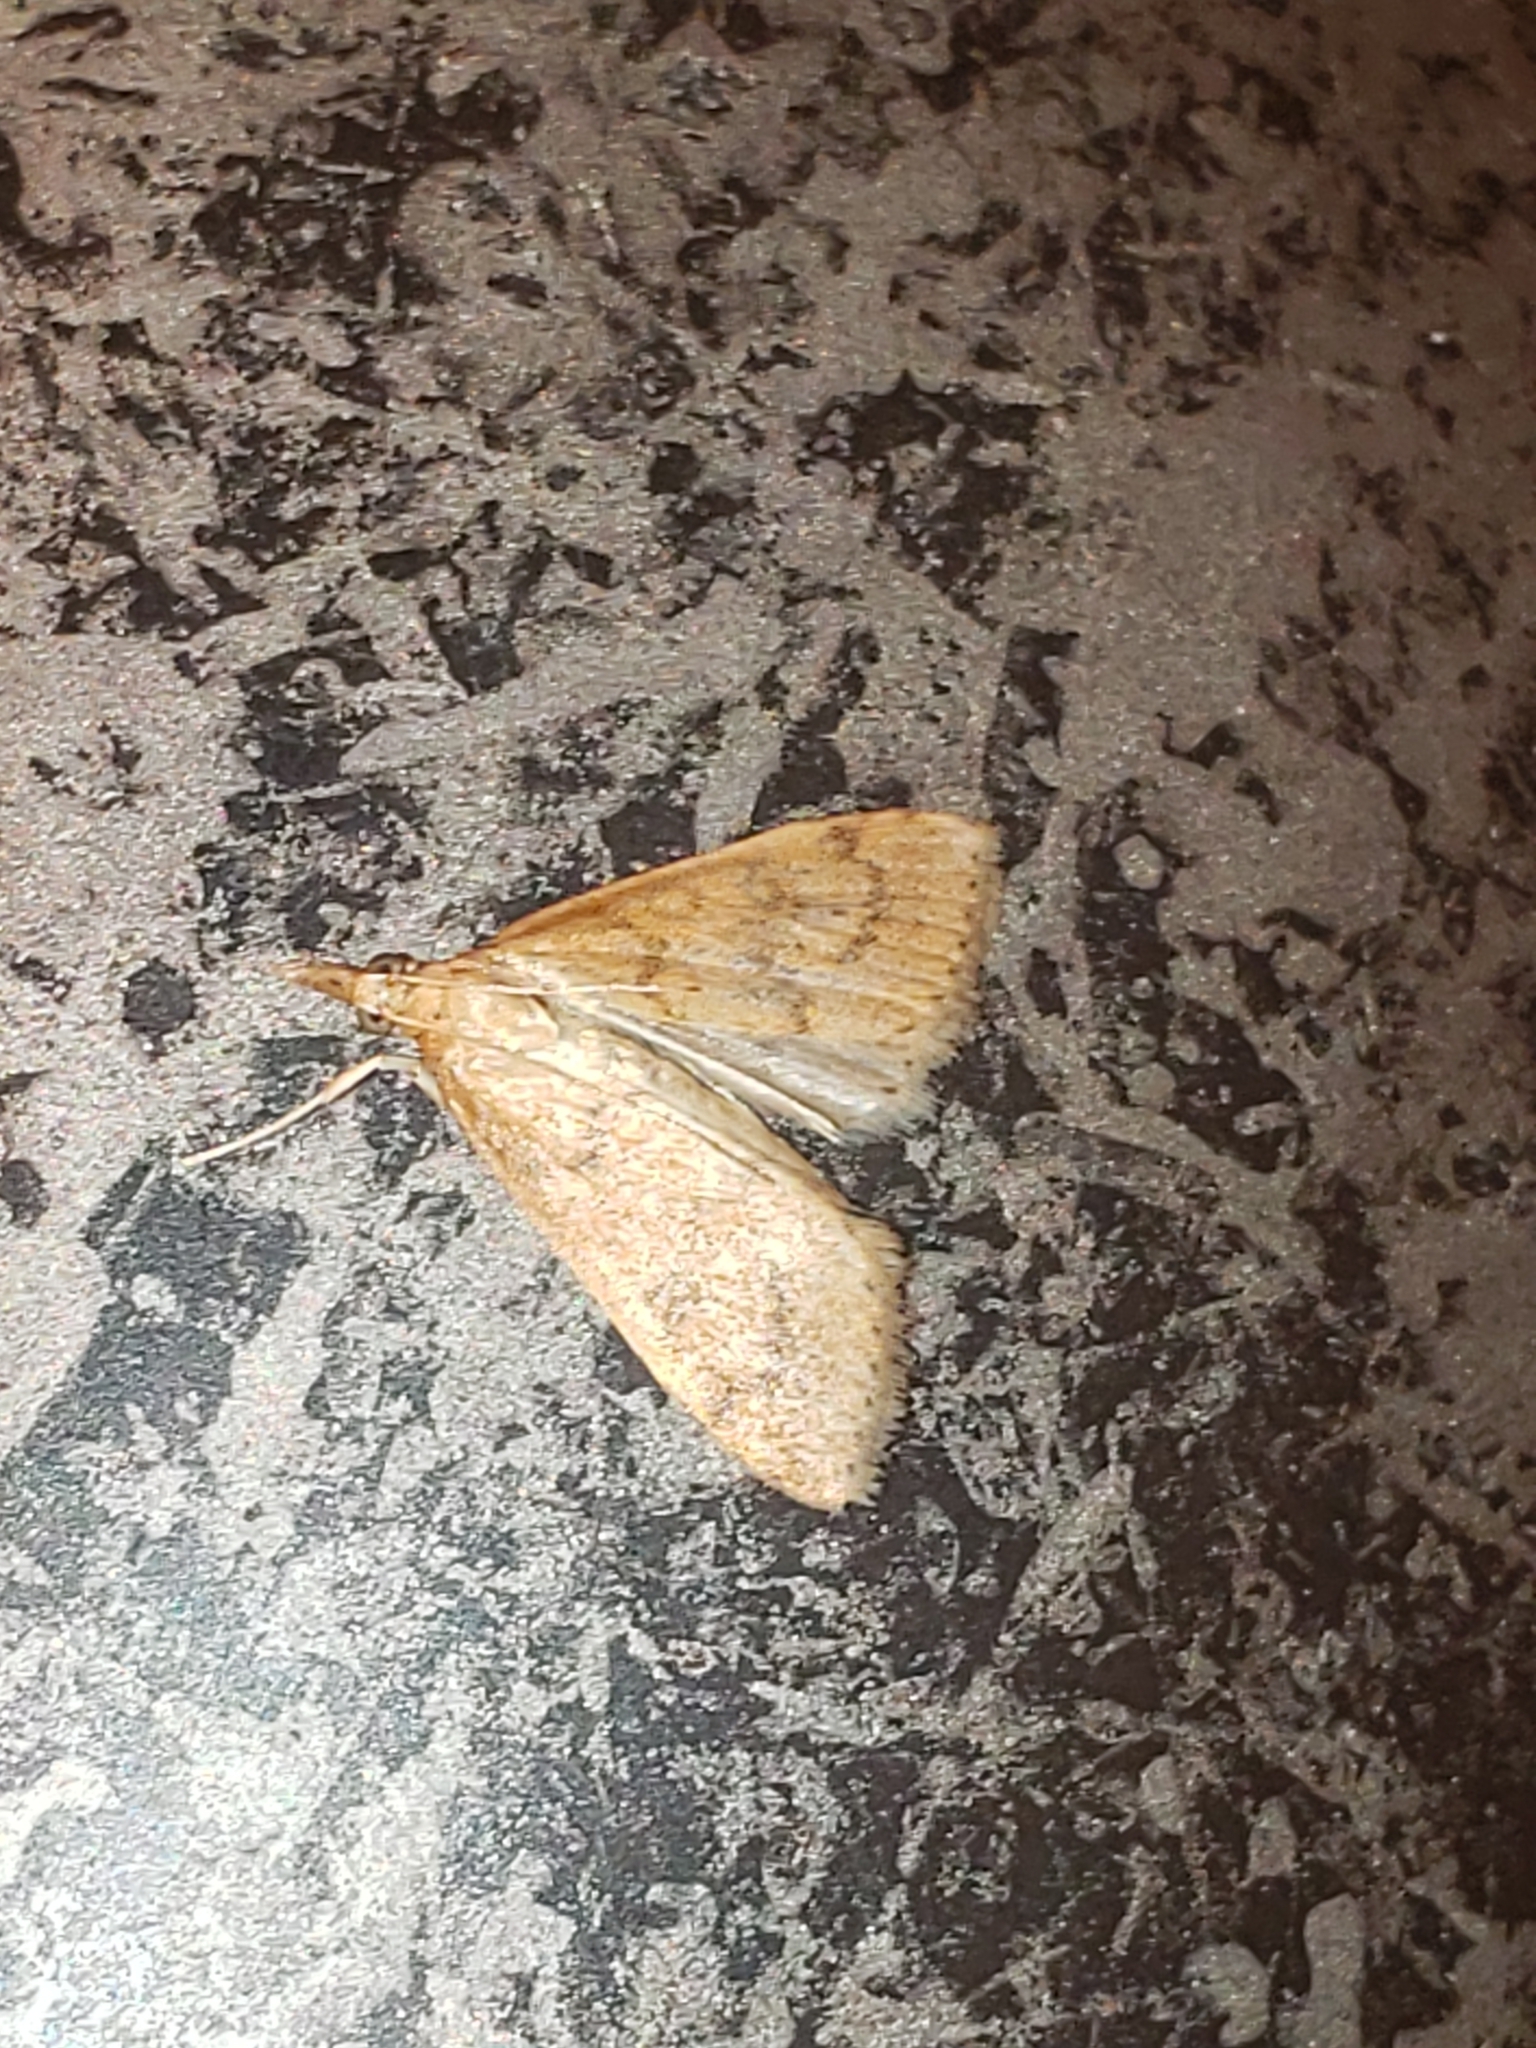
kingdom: Animalia
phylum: Arthropoda
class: Insecta
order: Lepidoptera
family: Crambidae
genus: Udea
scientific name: Udea rubigalis
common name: Celery leaftier moth
